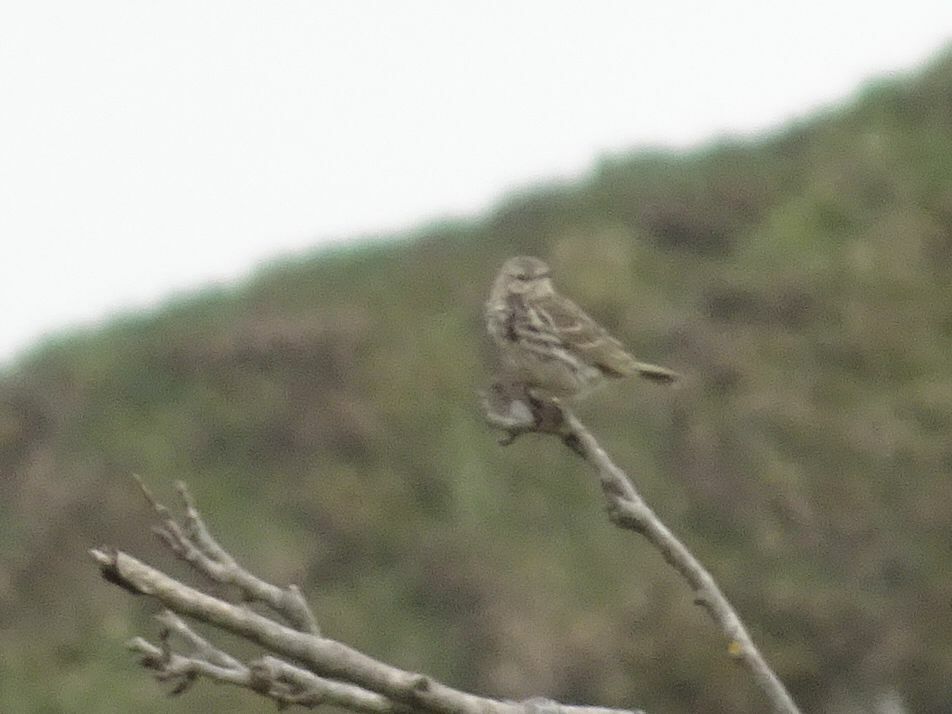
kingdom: Animalia
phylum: Chordata
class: Aves
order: Passeriformes
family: Motacillidae
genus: Anthus
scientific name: Anthus pratensis
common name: Meadow pipit
